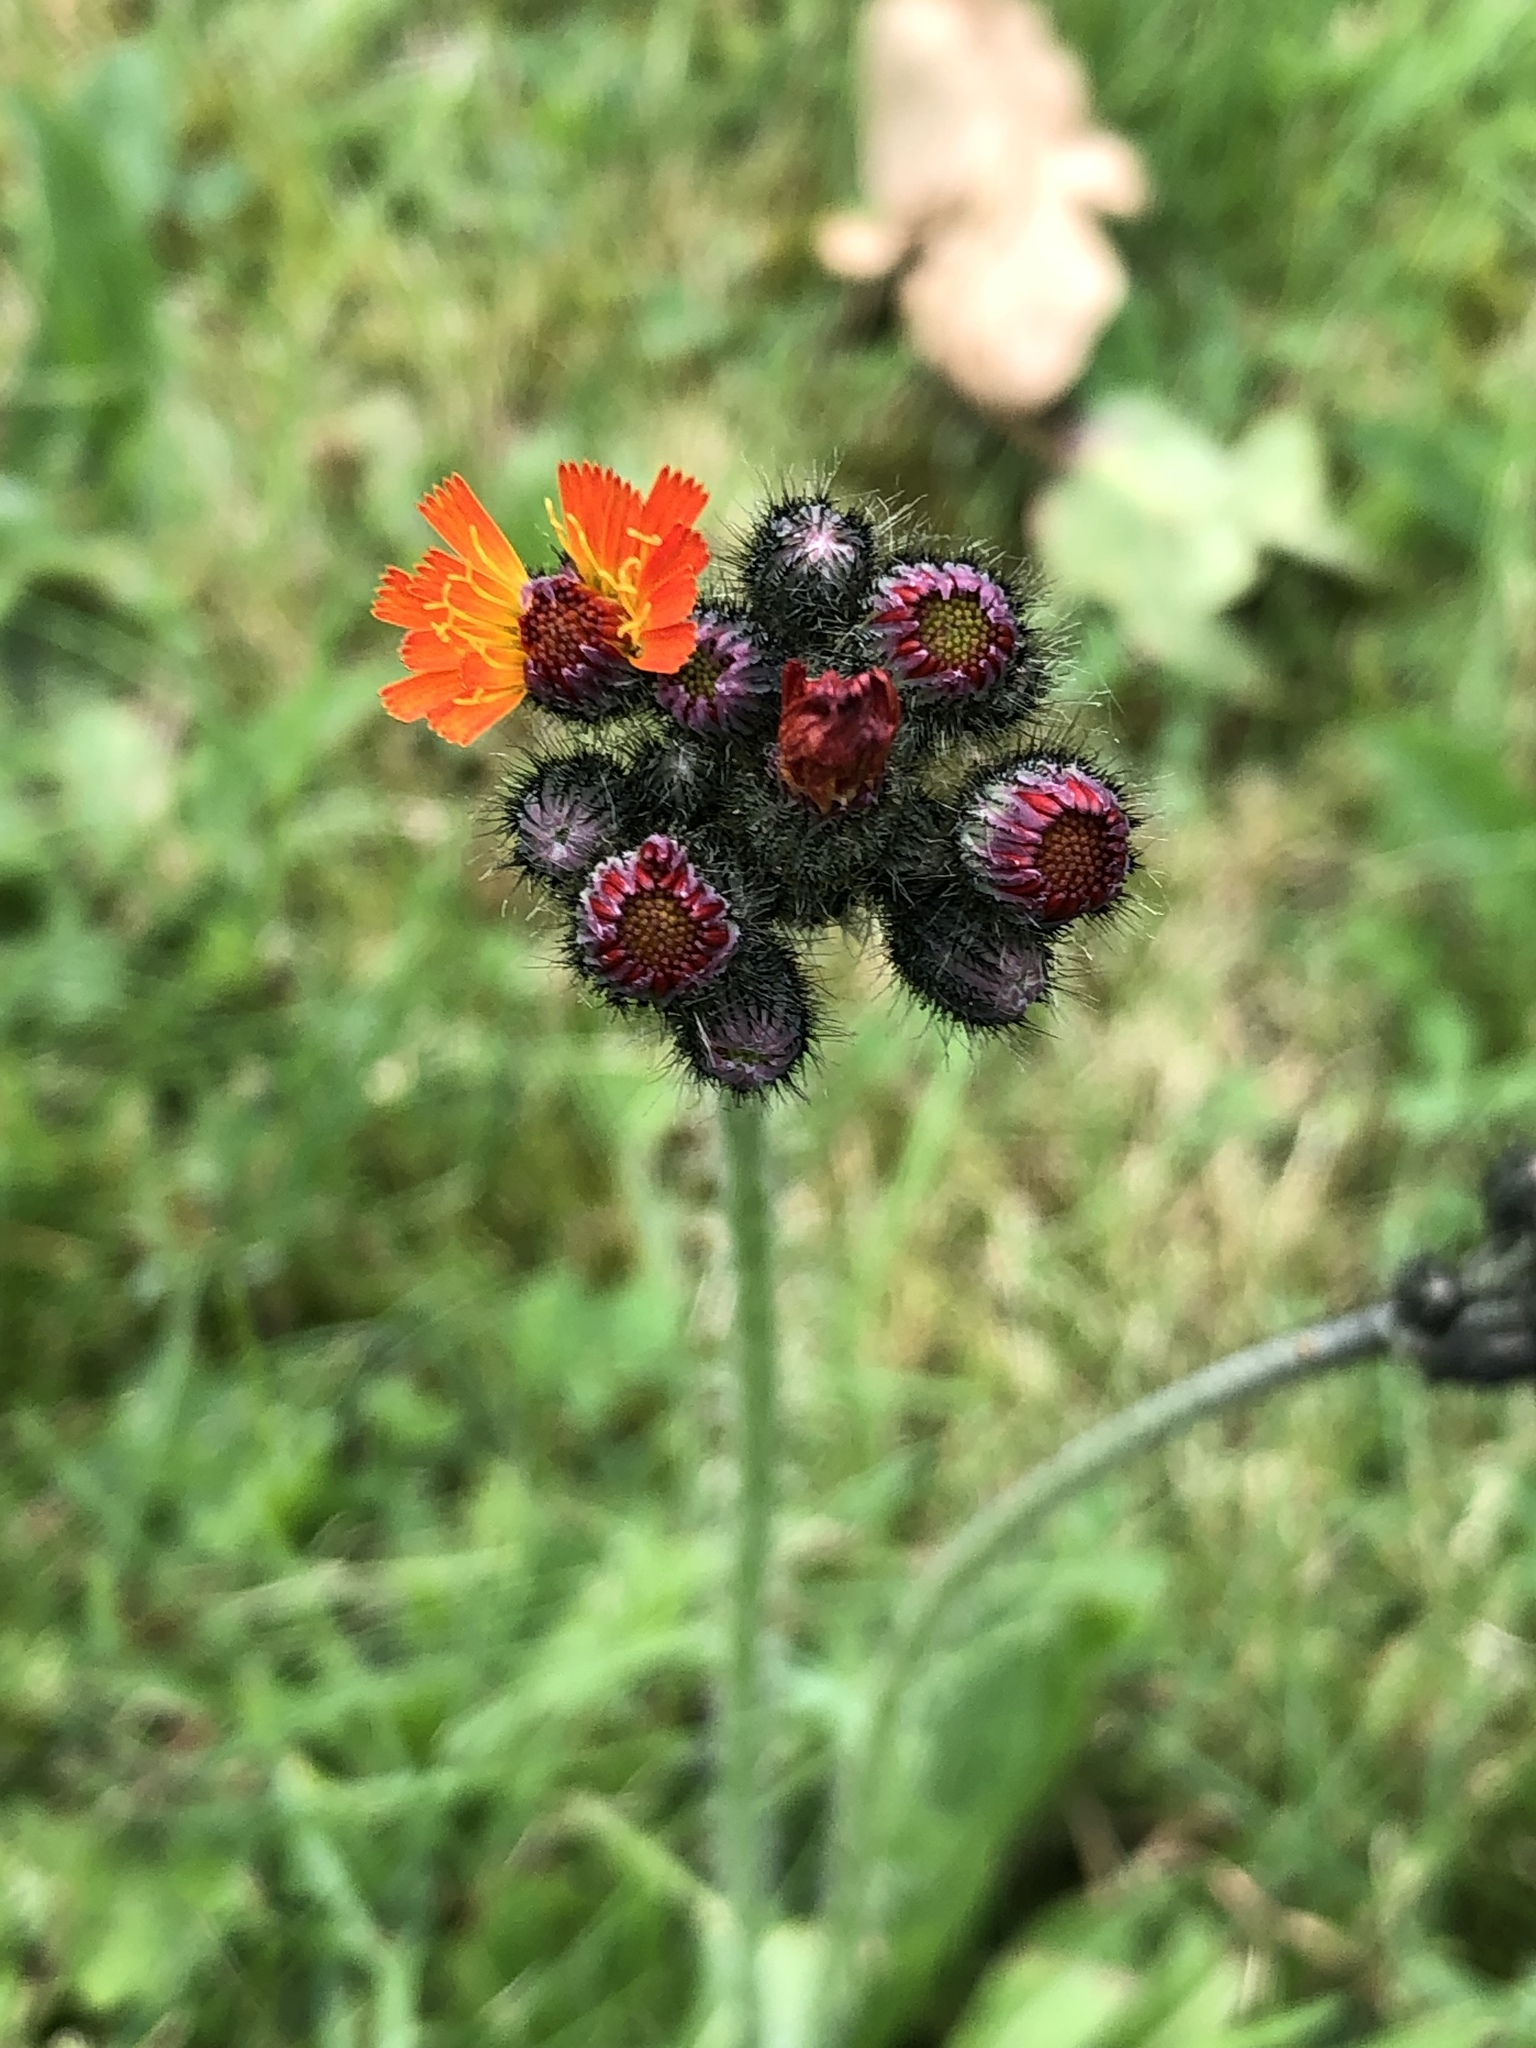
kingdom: Plantae
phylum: Tracheophyta
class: Magnoliopsida
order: Asterales
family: Asteraceae
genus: Pilosella
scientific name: Pilosella aurantiaca
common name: Fox-and-cubs
